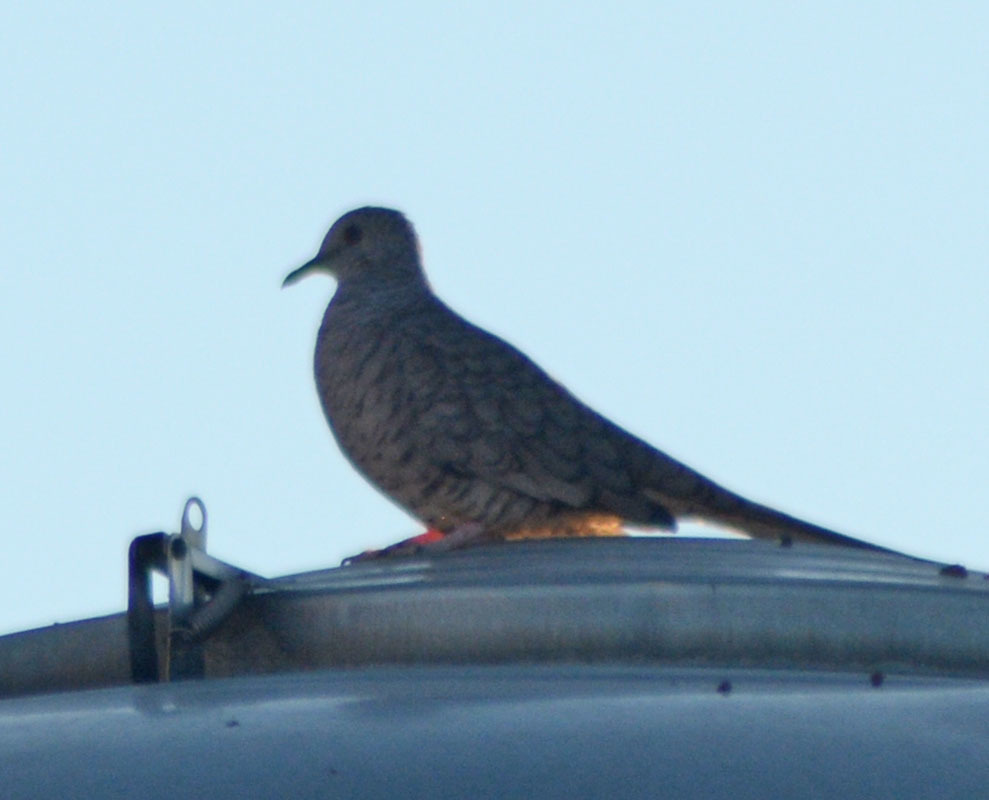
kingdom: Animalia
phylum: Chordata
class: Aves
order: Columbiformes
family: Columbidae
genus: Columbina
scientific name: Columbina inca
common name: Inca dove
